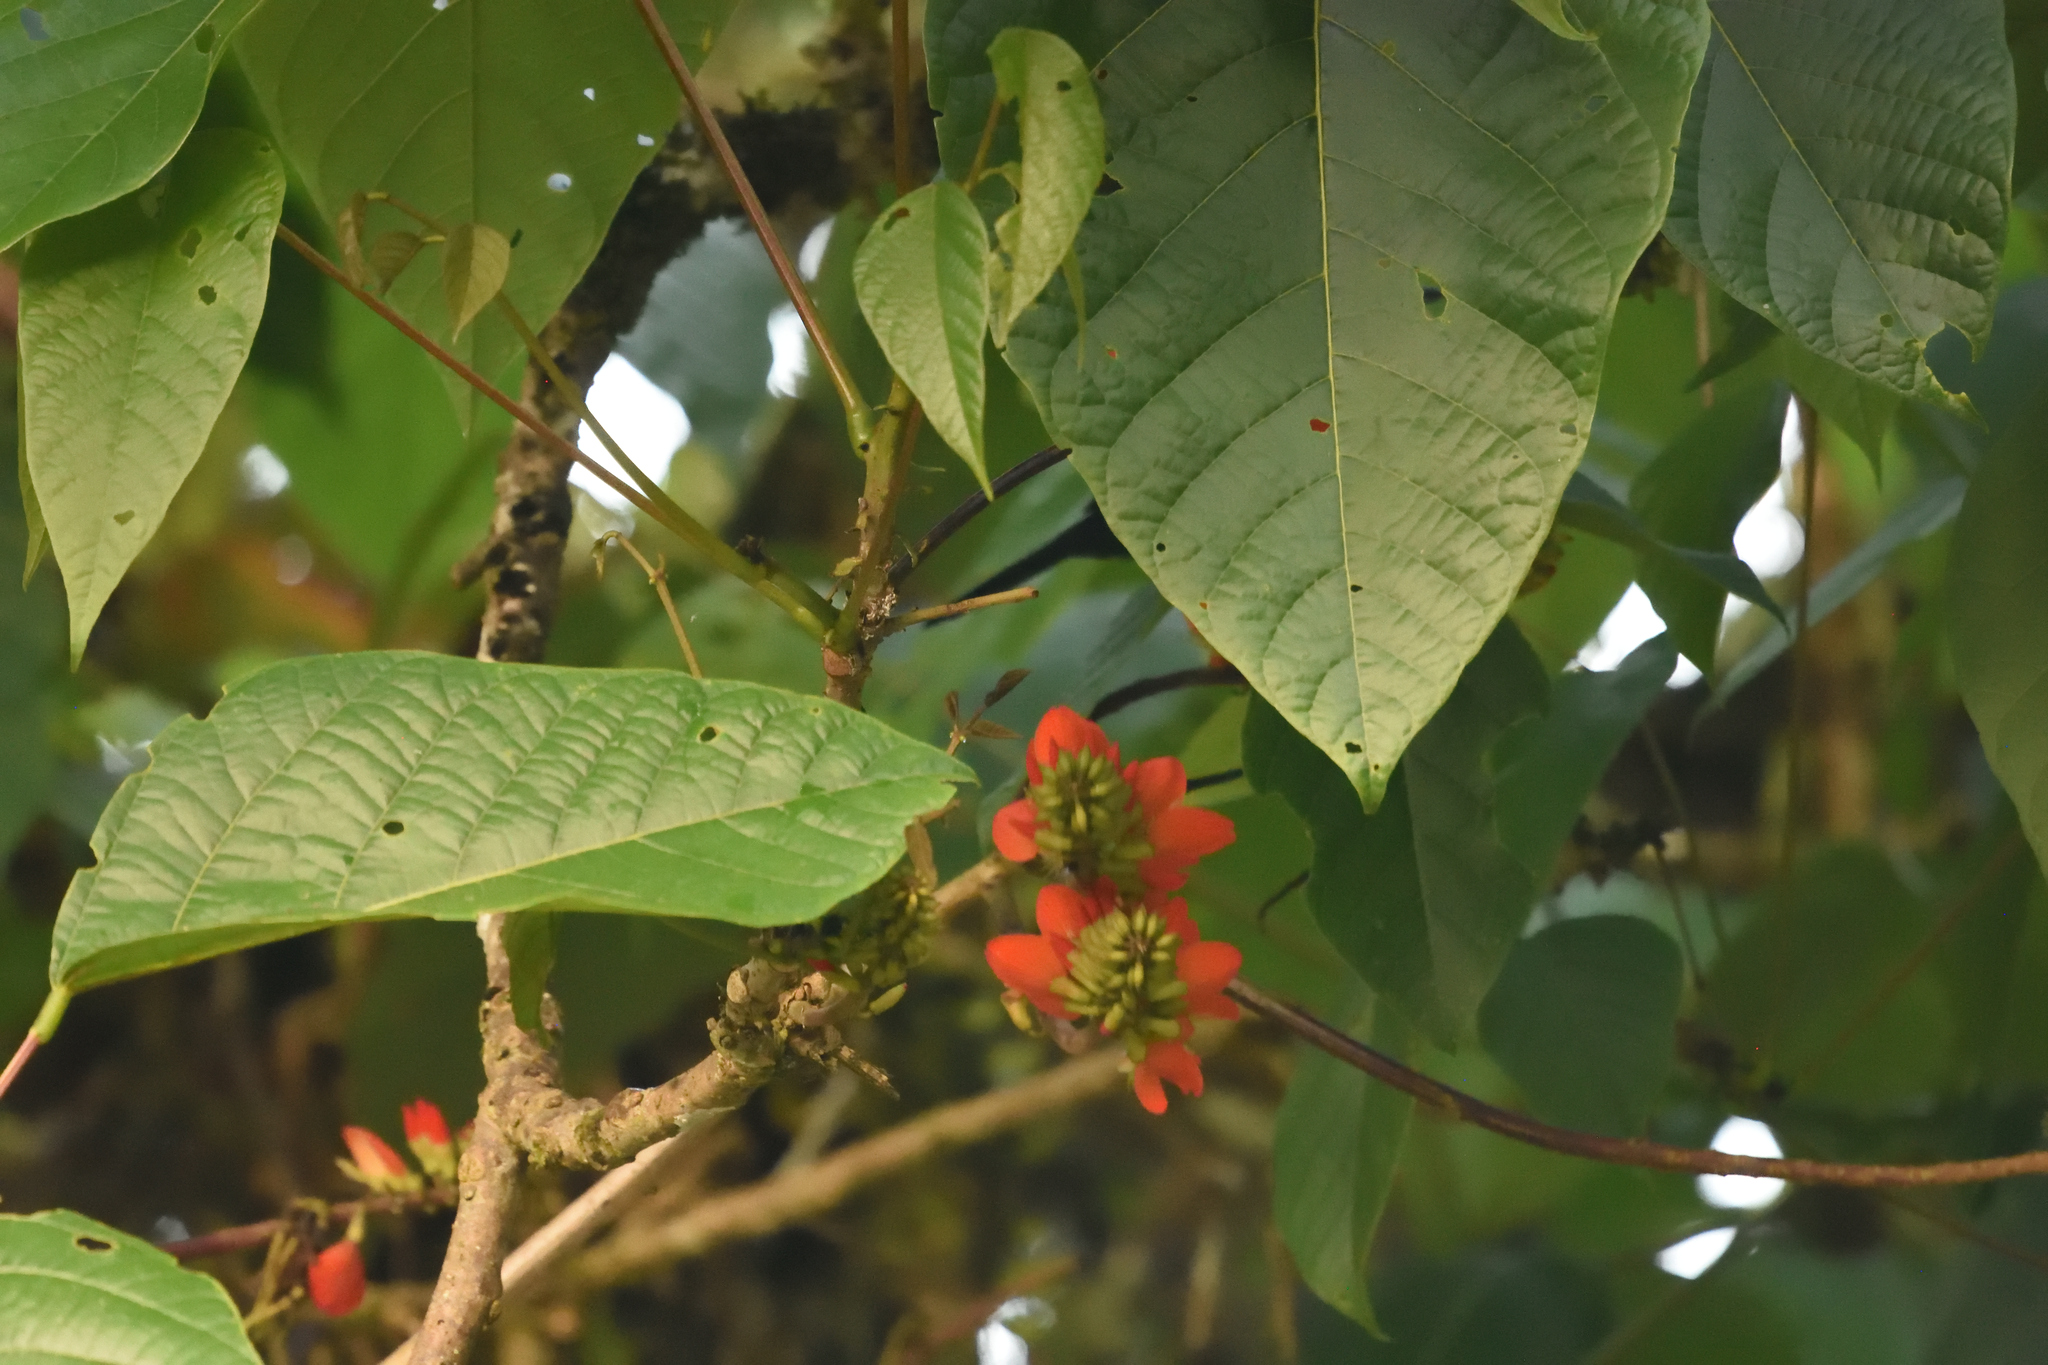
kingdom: Plantae
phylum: Tracheophyta
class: Magnoliopsida
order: Fabales
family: Fabaceae
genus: Erythrina
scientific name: Erythrina edulis
